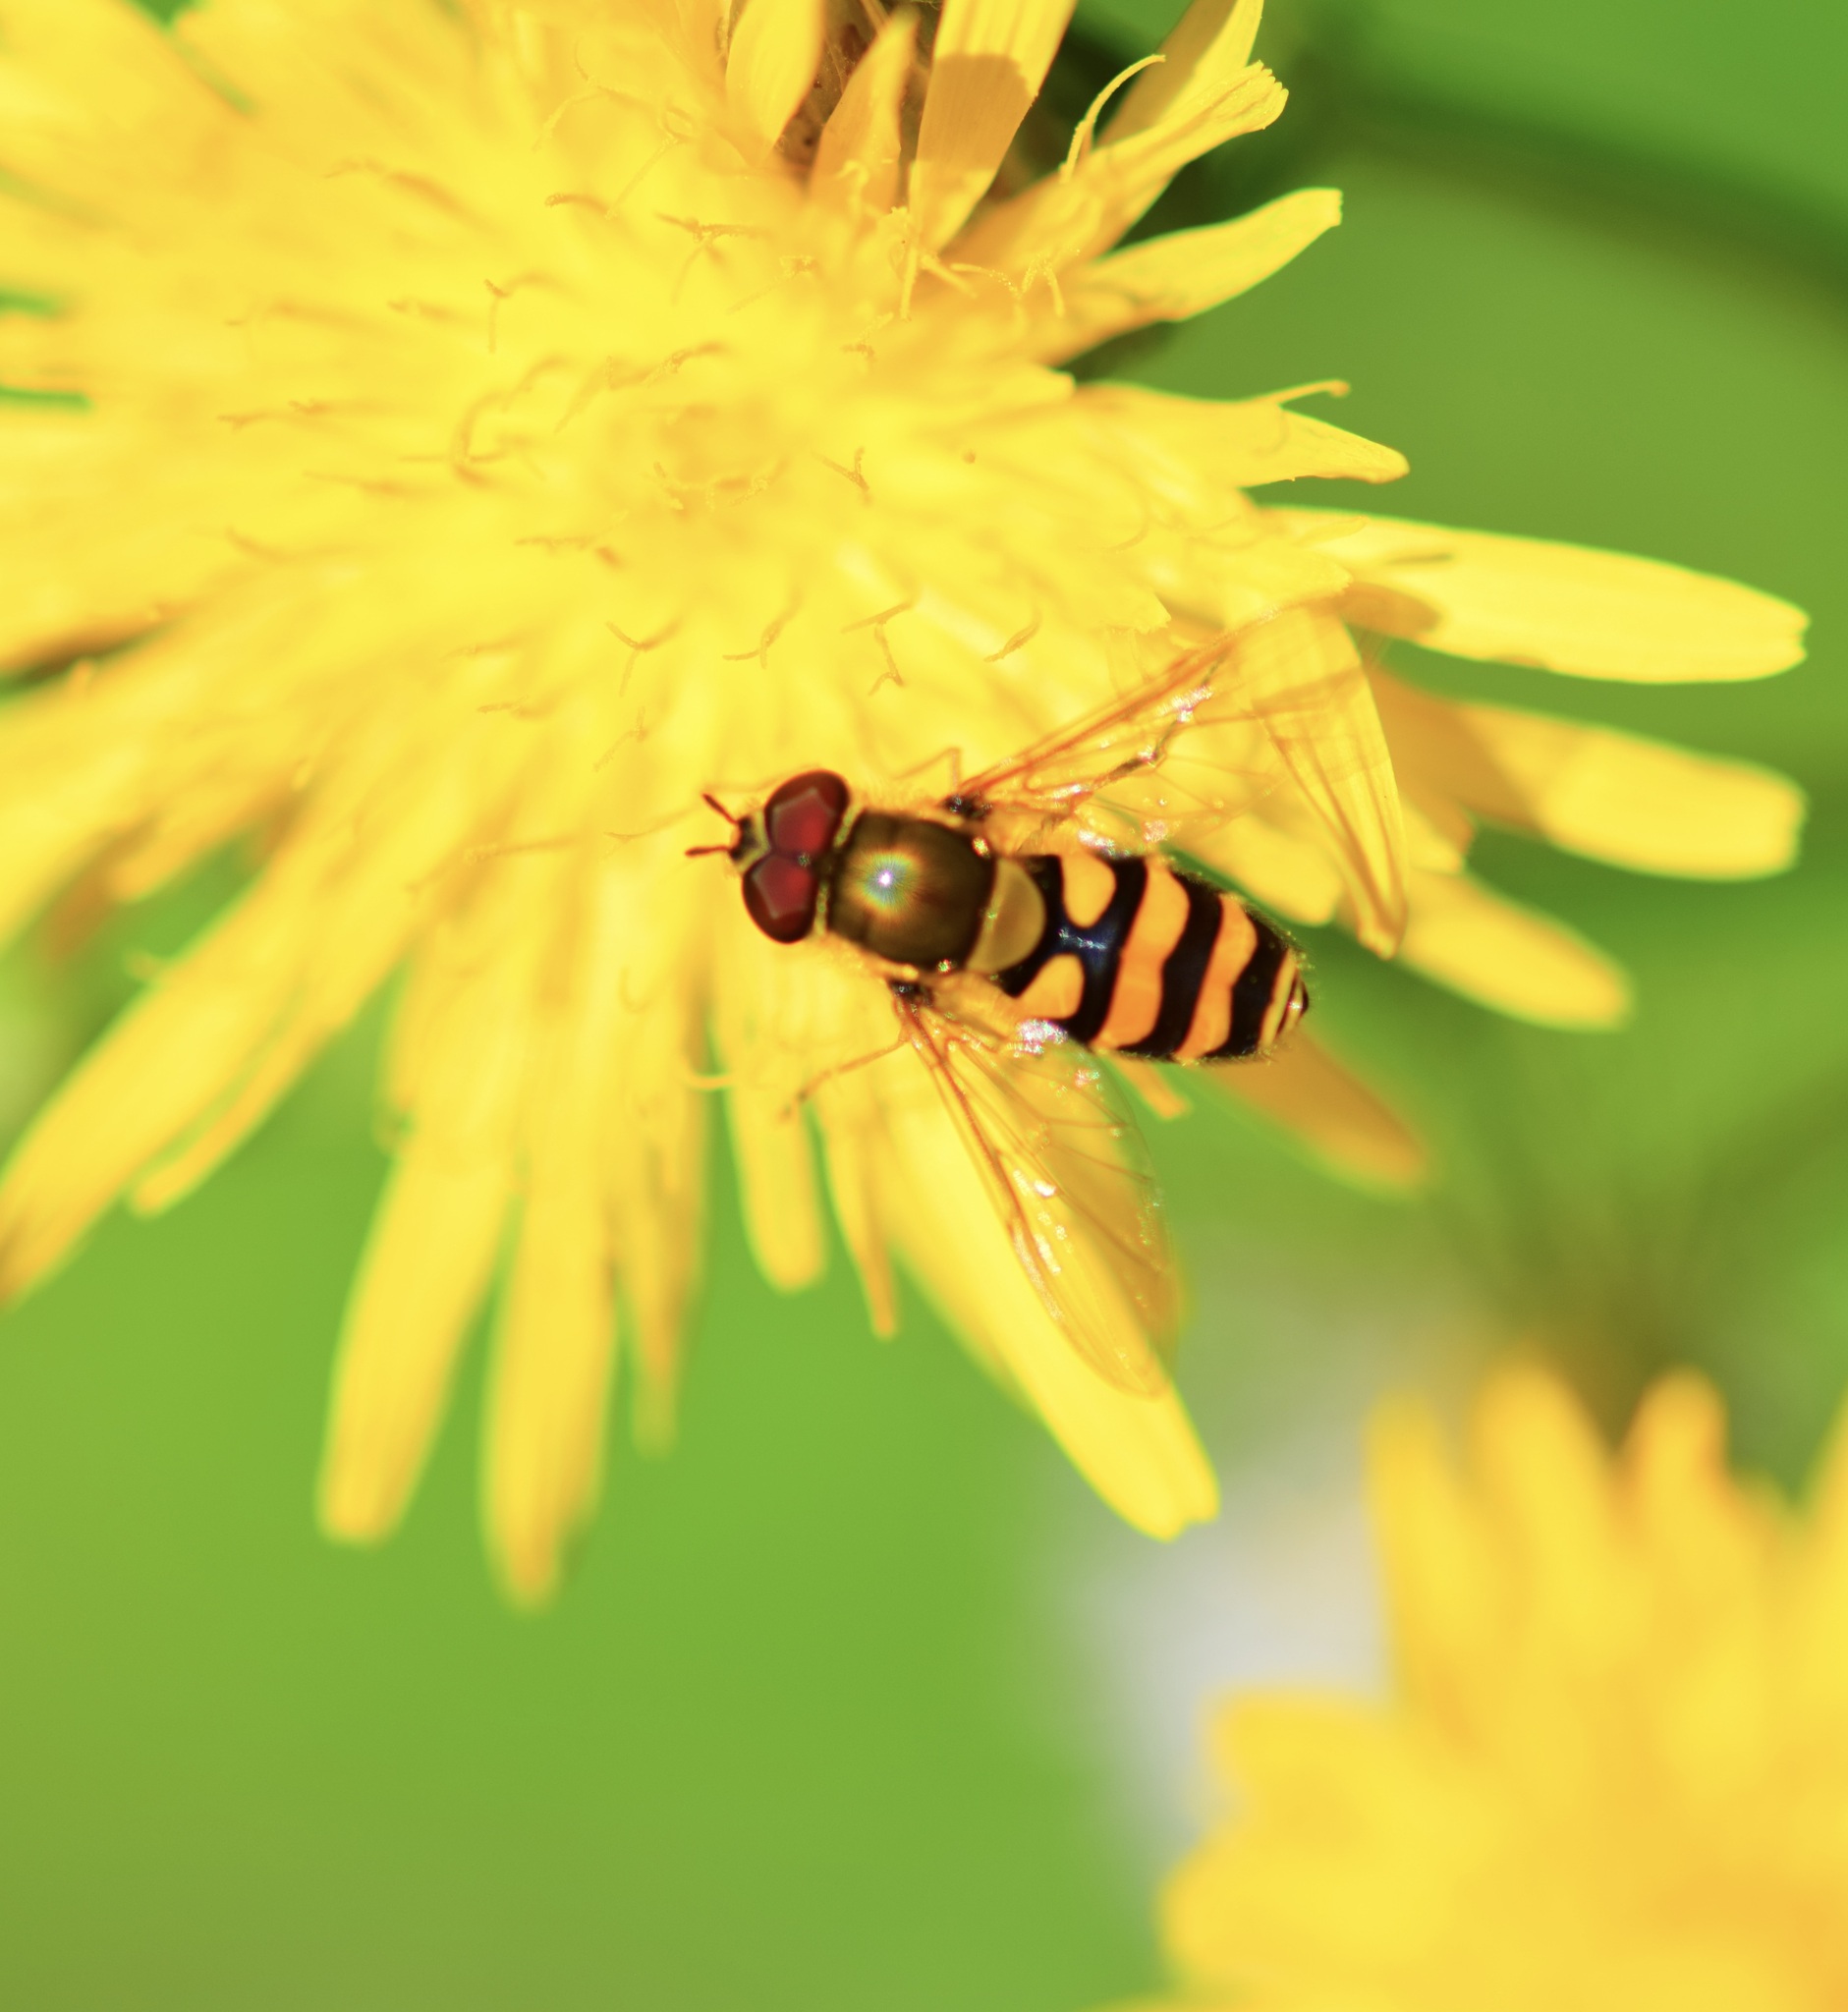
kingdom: Animalia
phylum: Arthropoda
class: Insecta
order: Diptera
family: Syrphidae
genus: Syrphus
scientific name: Syrphus
